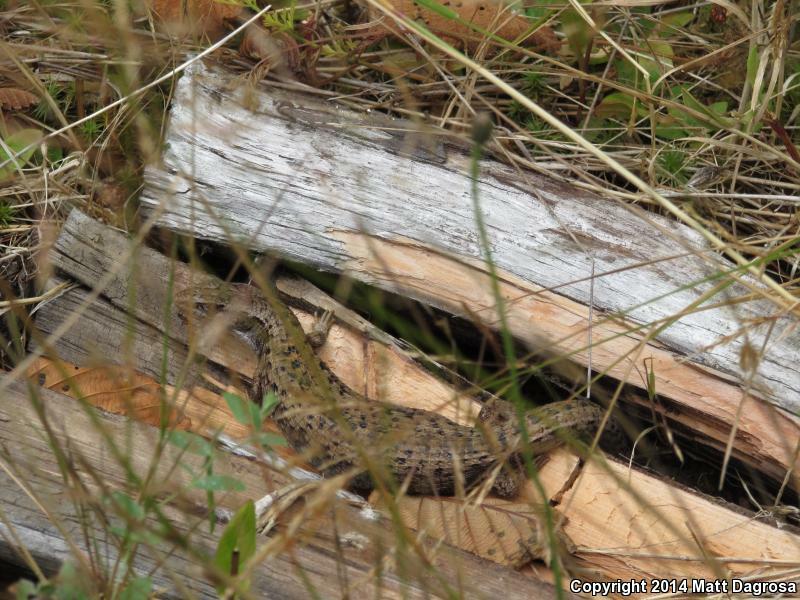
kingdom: Animalia
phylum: Chordata
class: Squamata
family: Anguidae
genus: Elgaria
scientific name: Elgaria coerulea
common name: Northern alligator lizard
